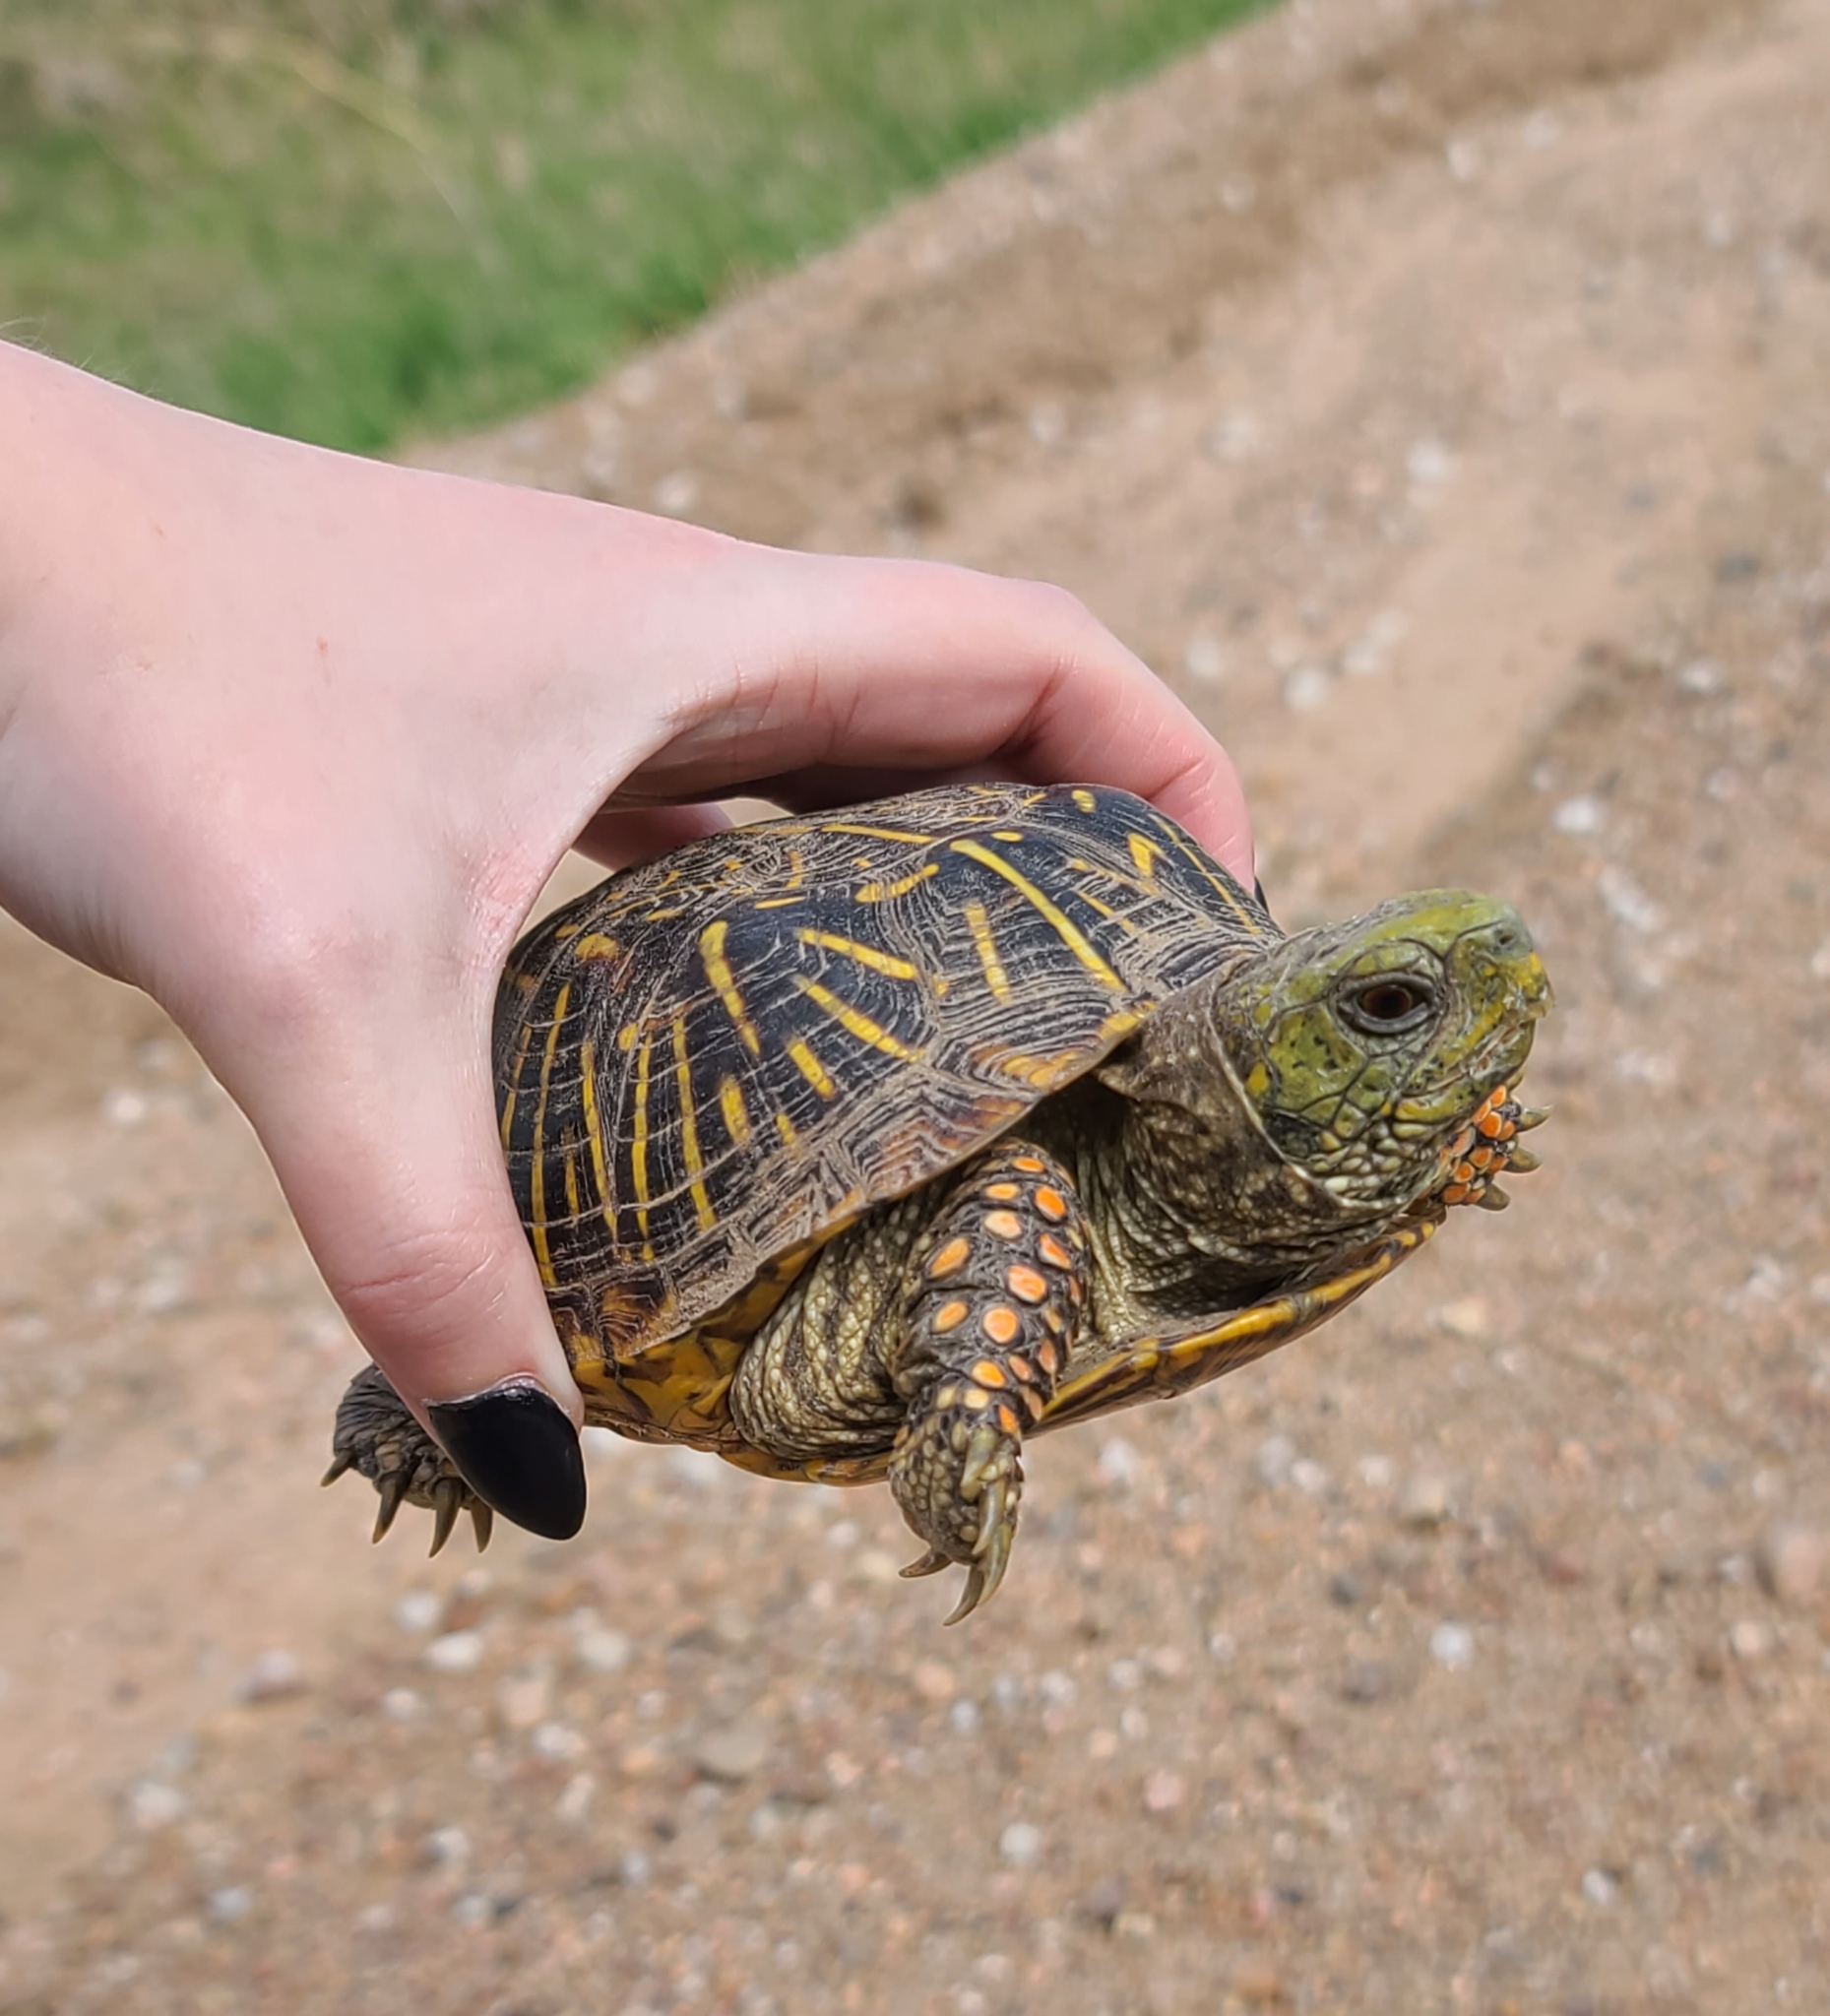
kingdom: Animalia
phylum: Chordata
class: Testudines
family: Emydidae
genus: Terrapene
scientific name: Terrapene ornata
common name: Western box turtle
